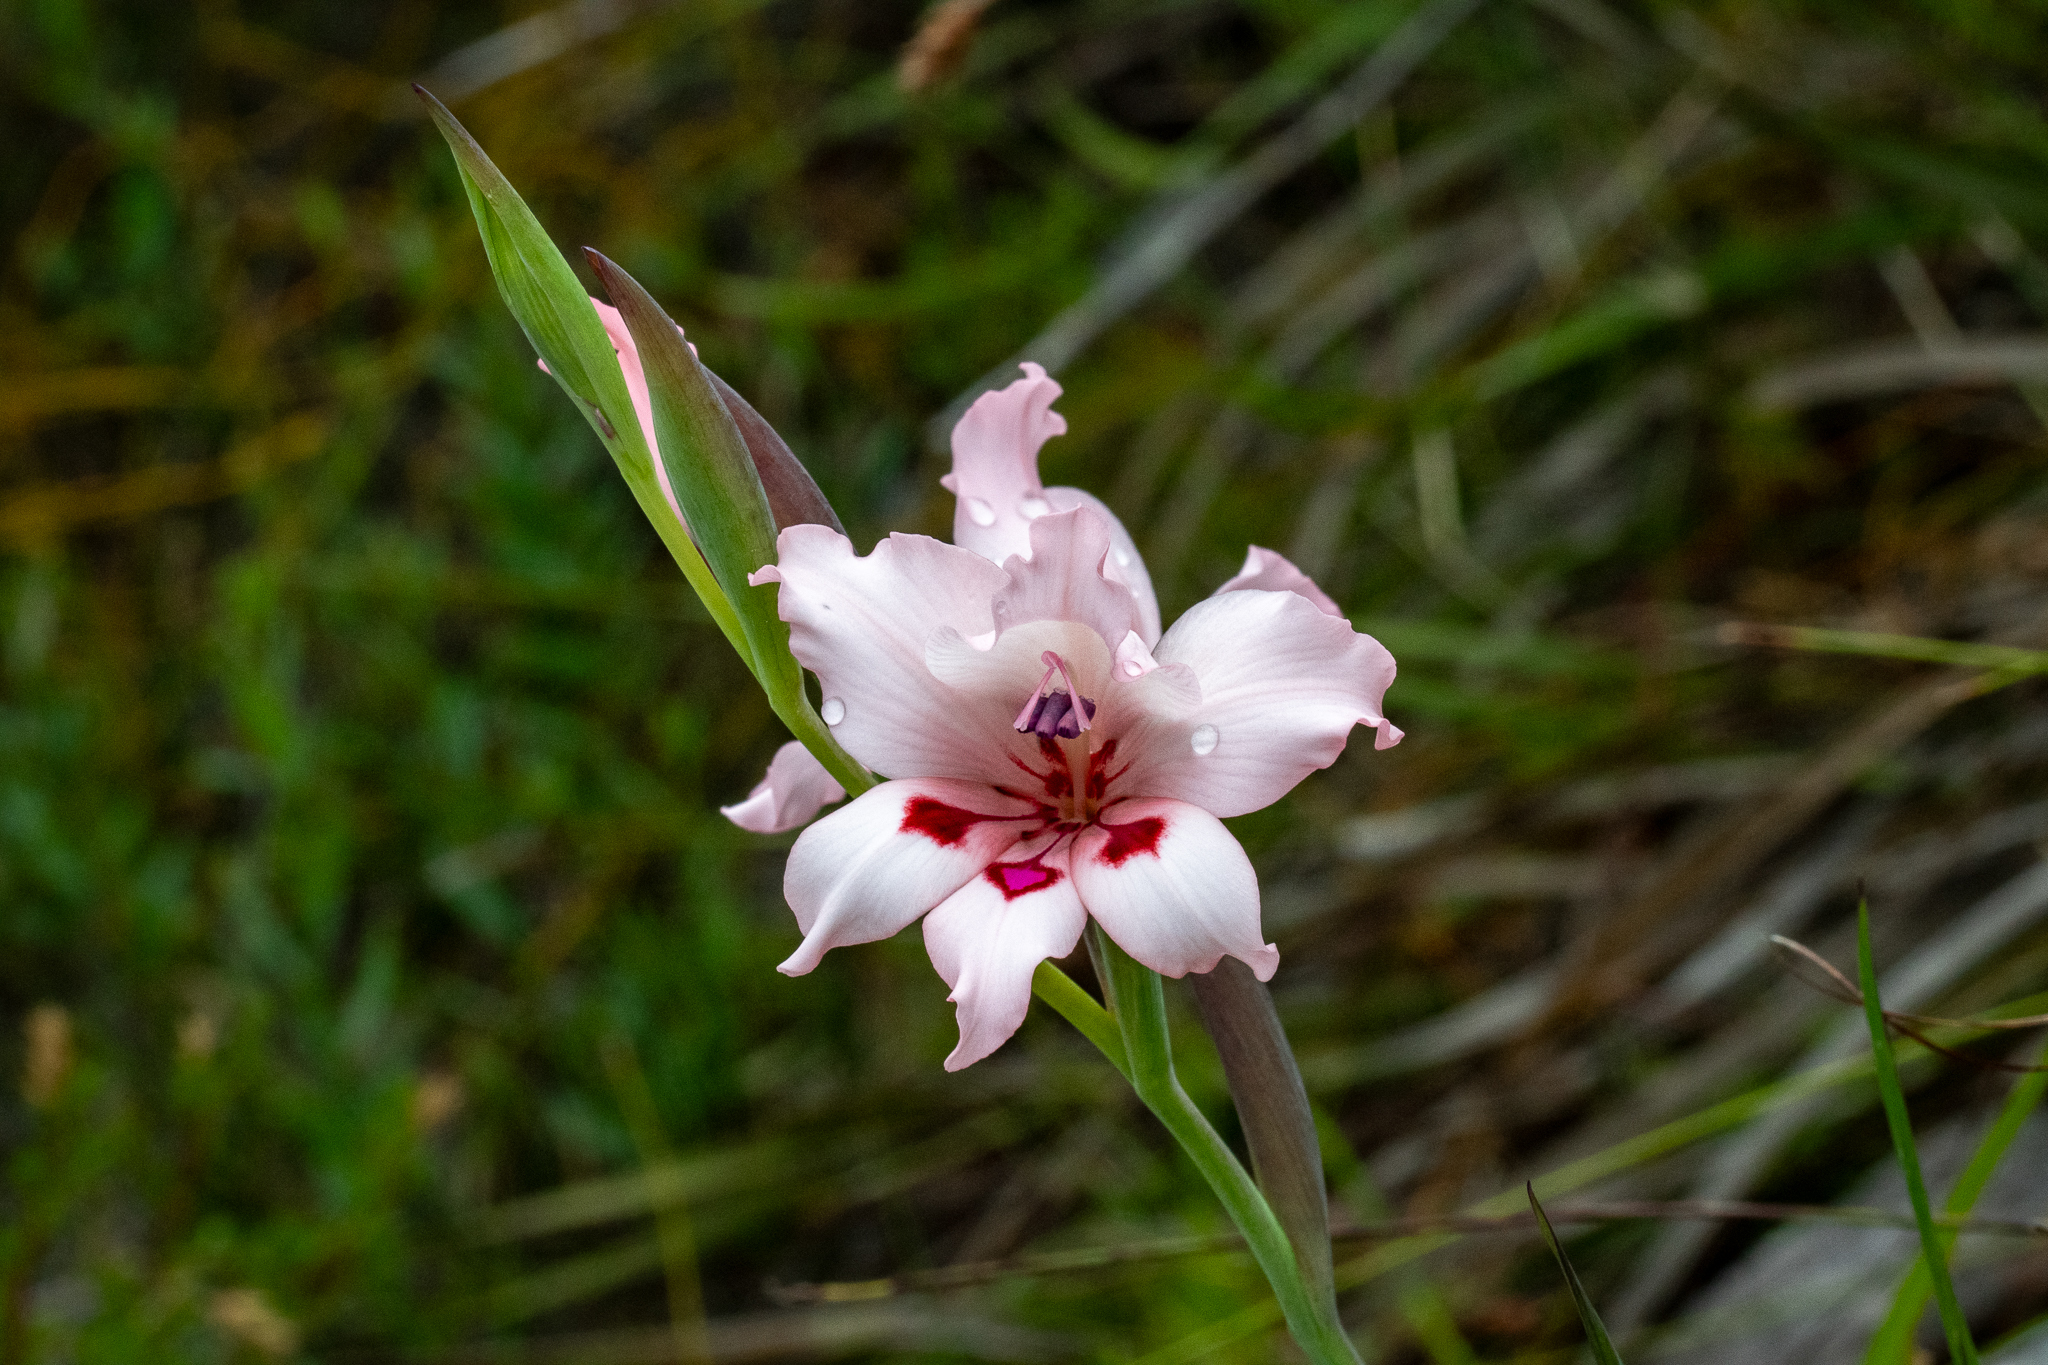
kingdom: Plantae
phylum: Tracheophyta
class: Liliopsida
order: Asparagales
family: Iridaceae
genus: Gladiolus
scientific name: Gladiolus carneus
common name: Painted-lady
